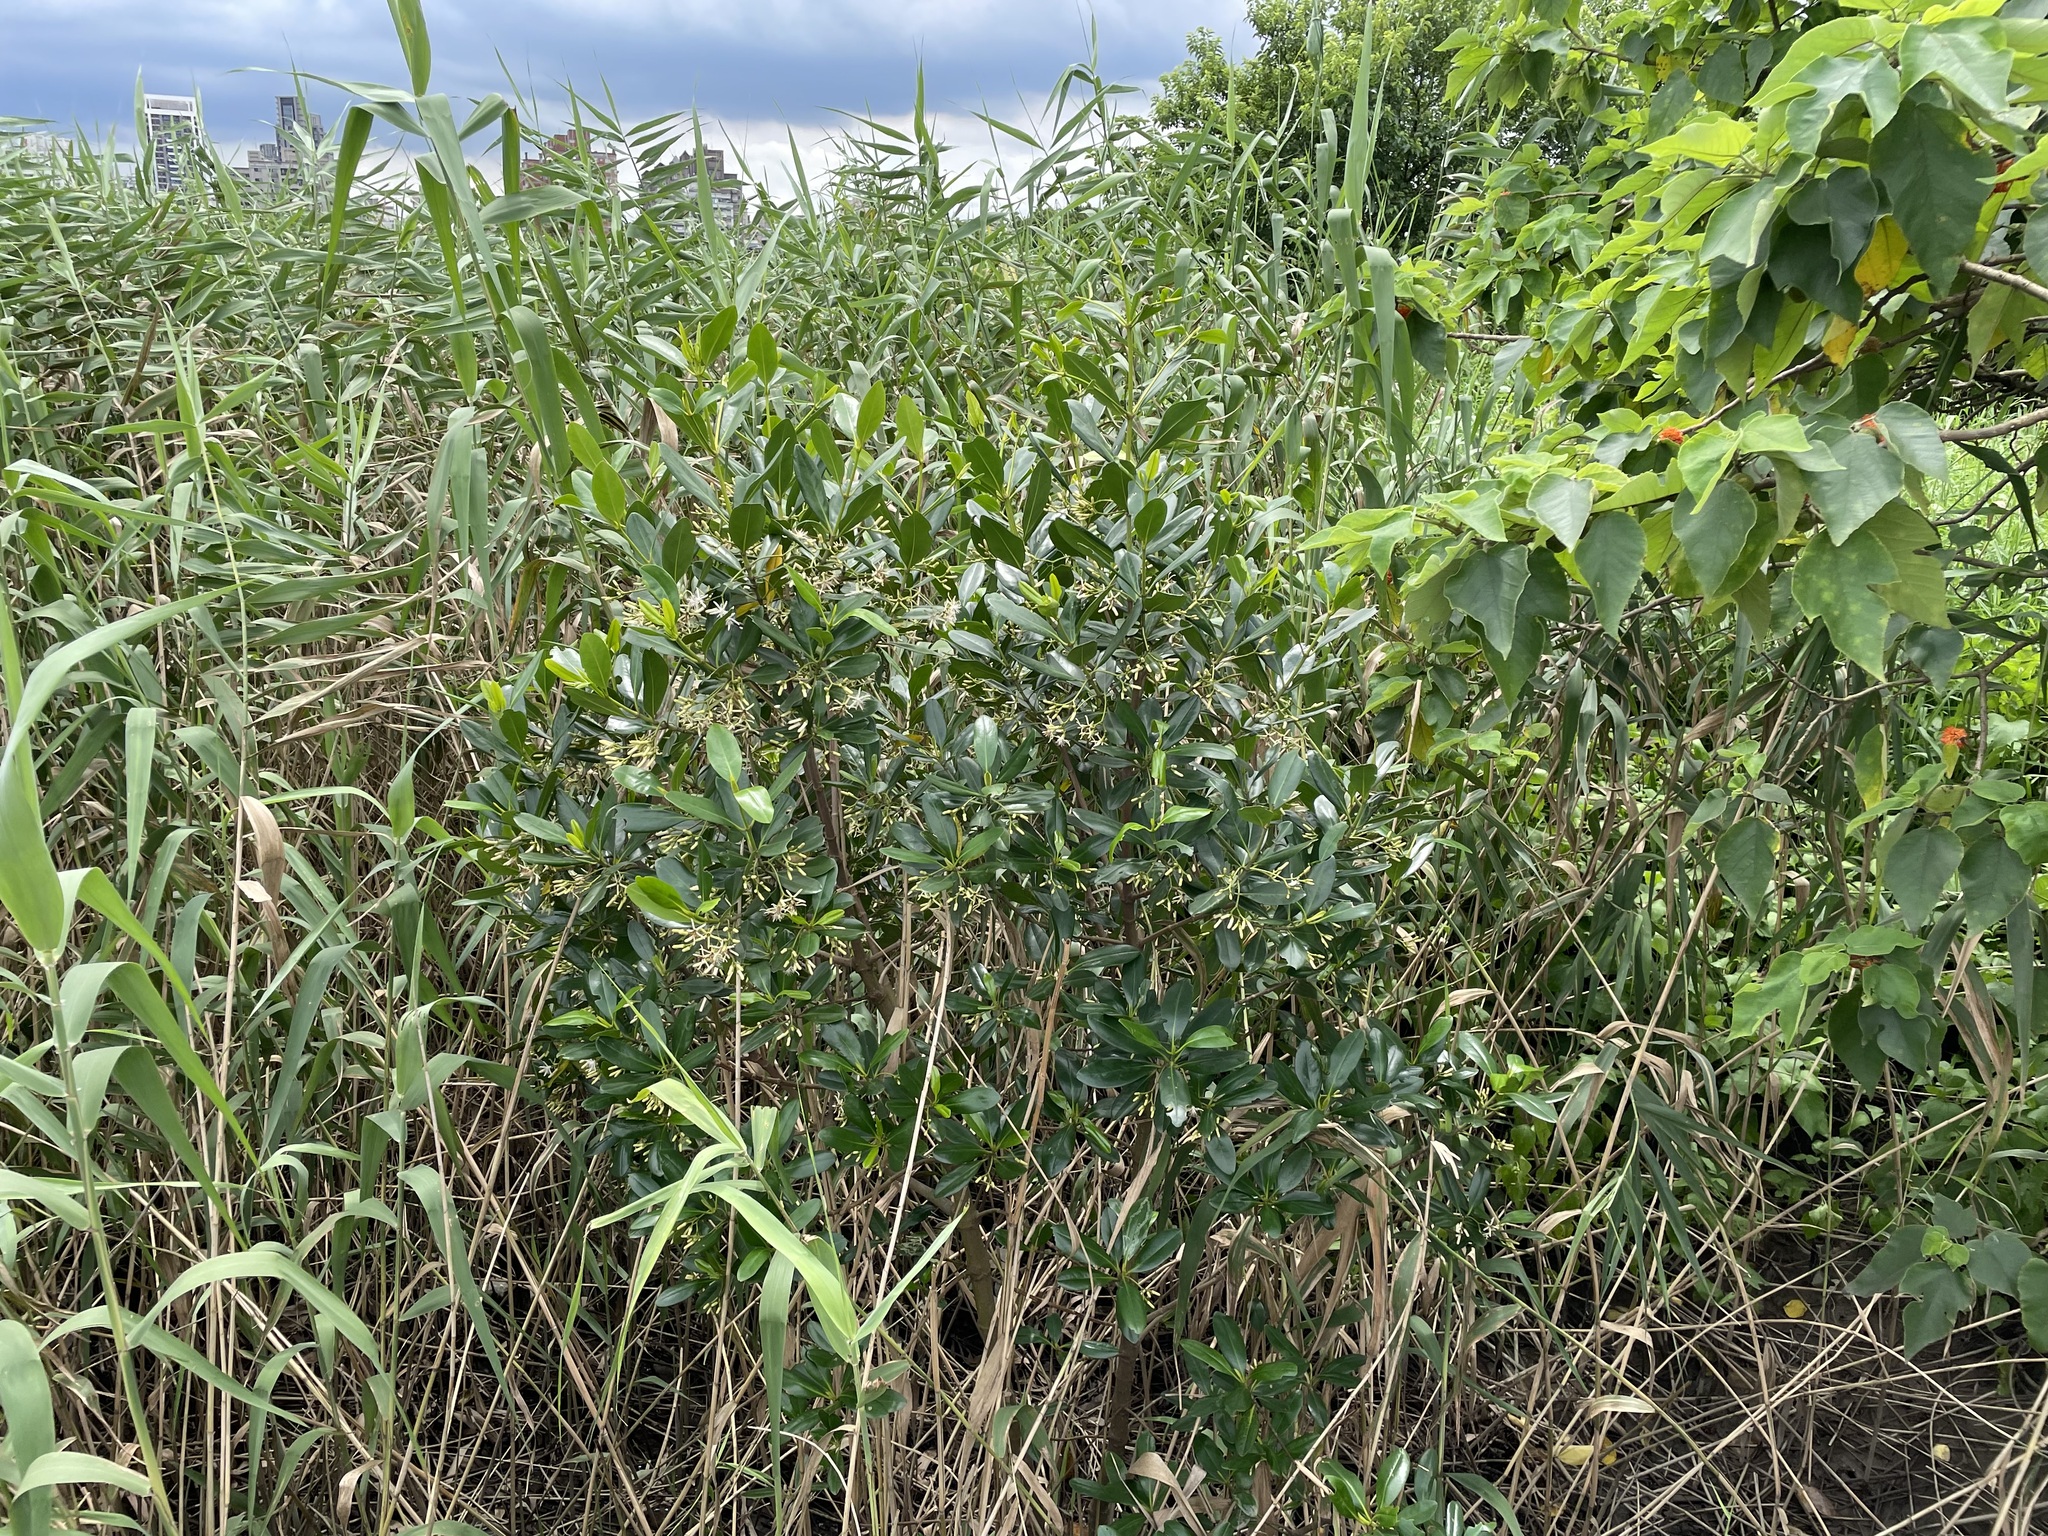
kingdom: Plantae
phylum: Tracheophyta
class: Magnoliopsida
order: Malpighiales
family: Rhizophoraceae
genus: Kandelia
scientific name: Kandelia obovata
